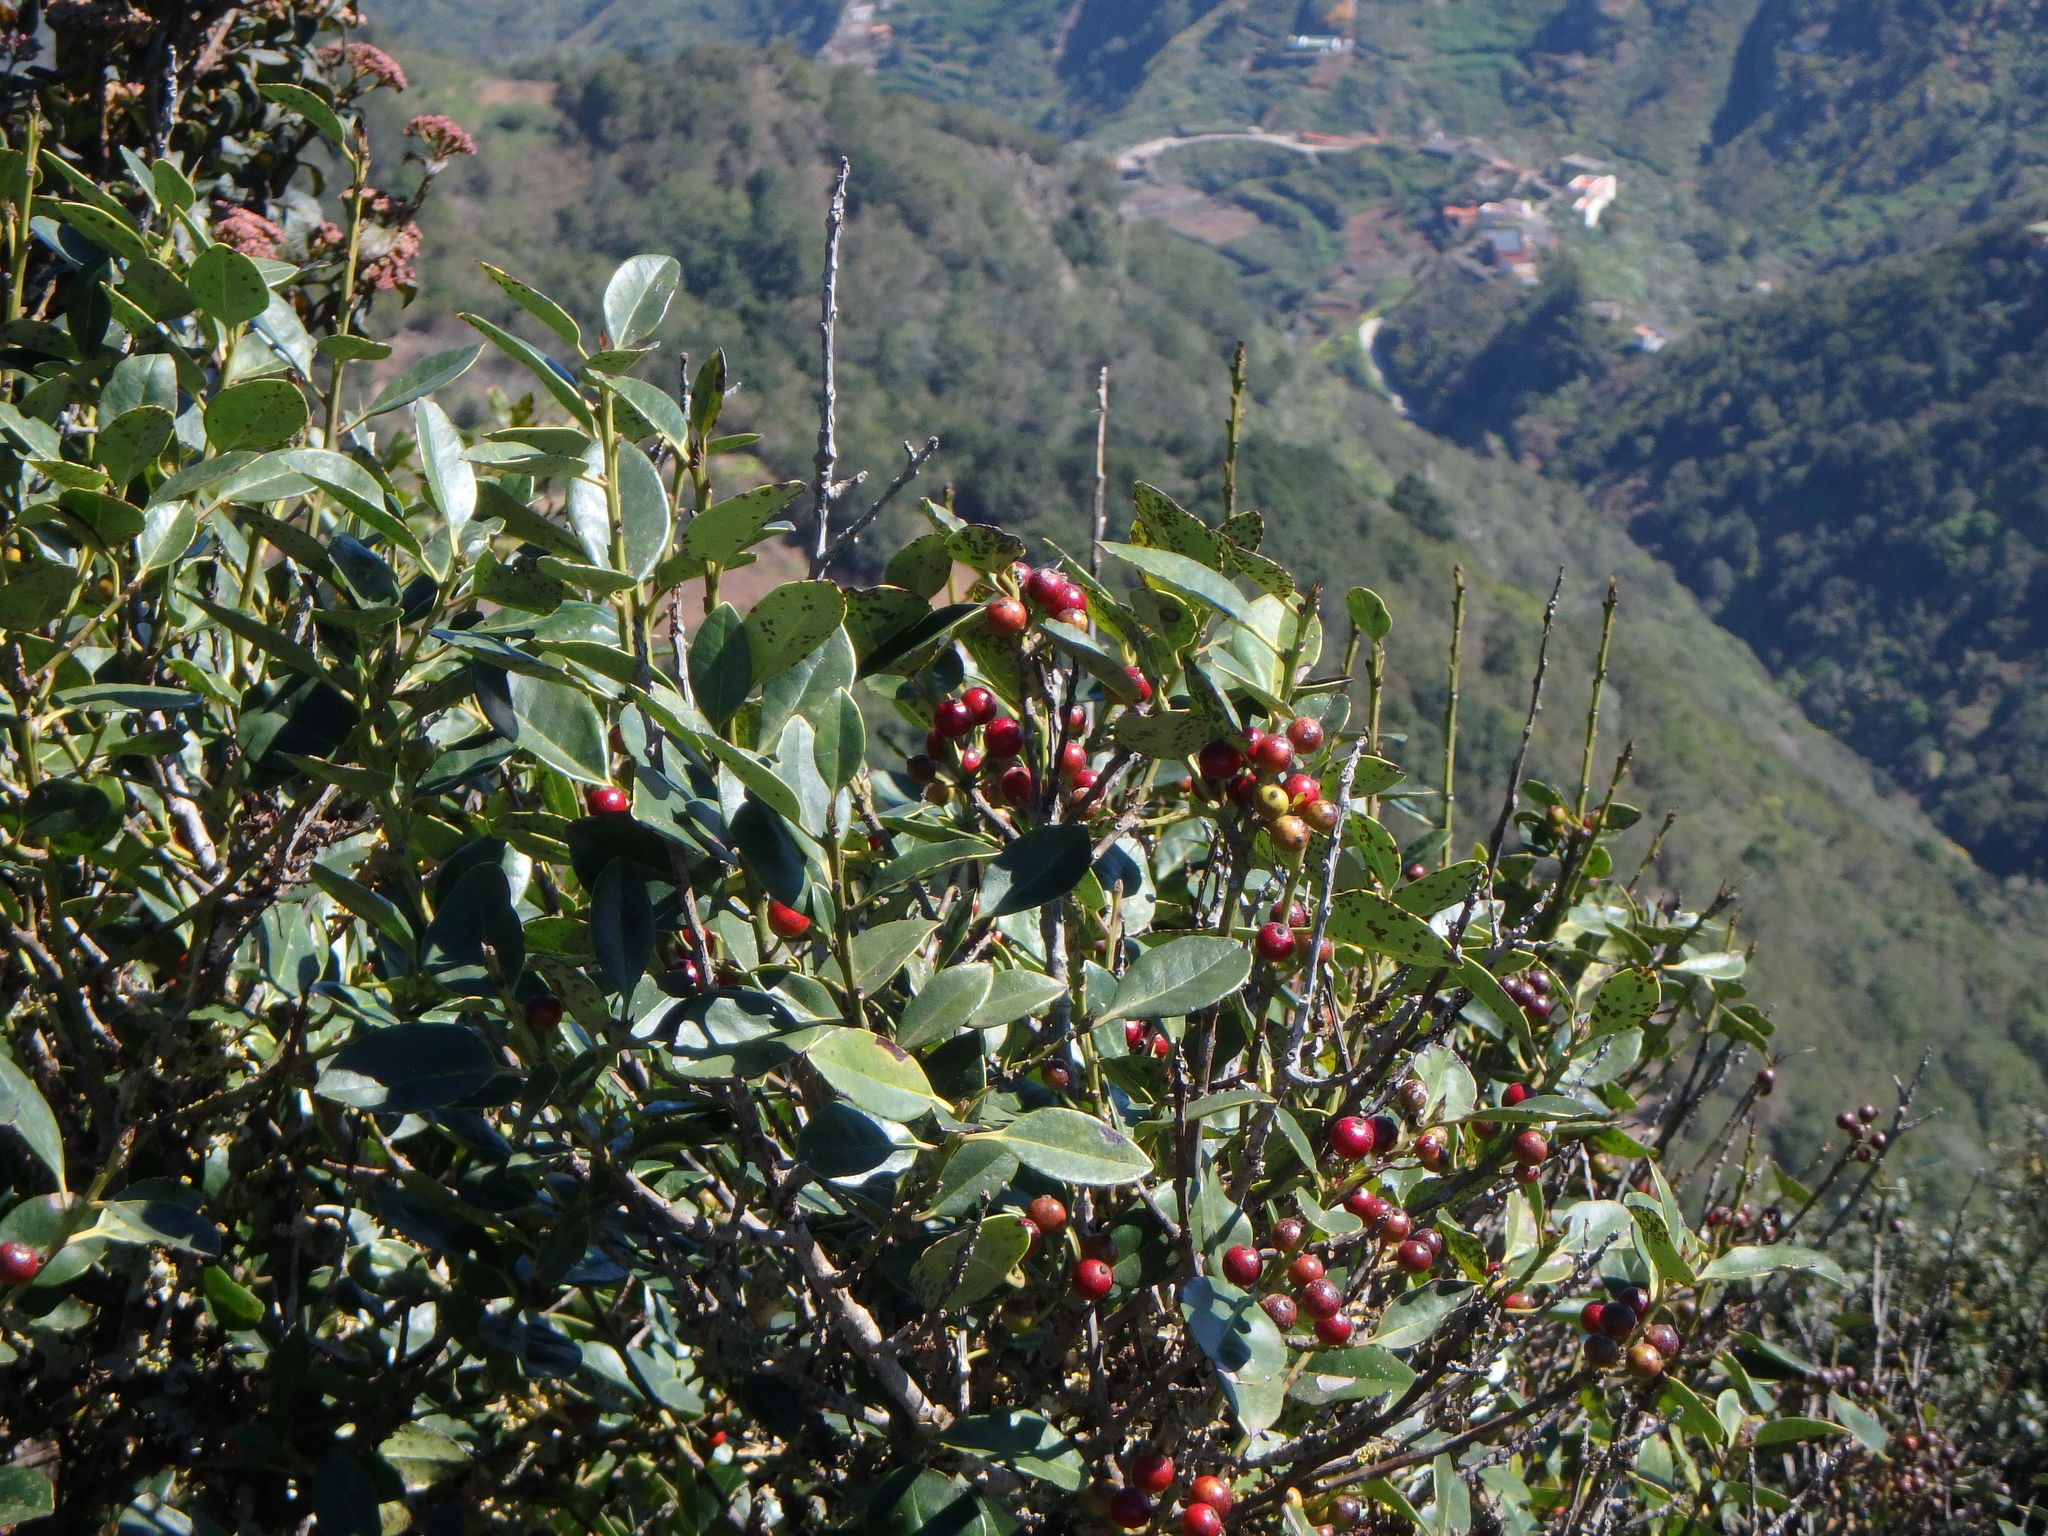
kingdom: Plantae
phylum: Tracheophyta
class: Magnoliopsida
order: Aquifoliales
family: Aquifoliaceae
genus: Ilex
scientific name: Ilex canariensis
